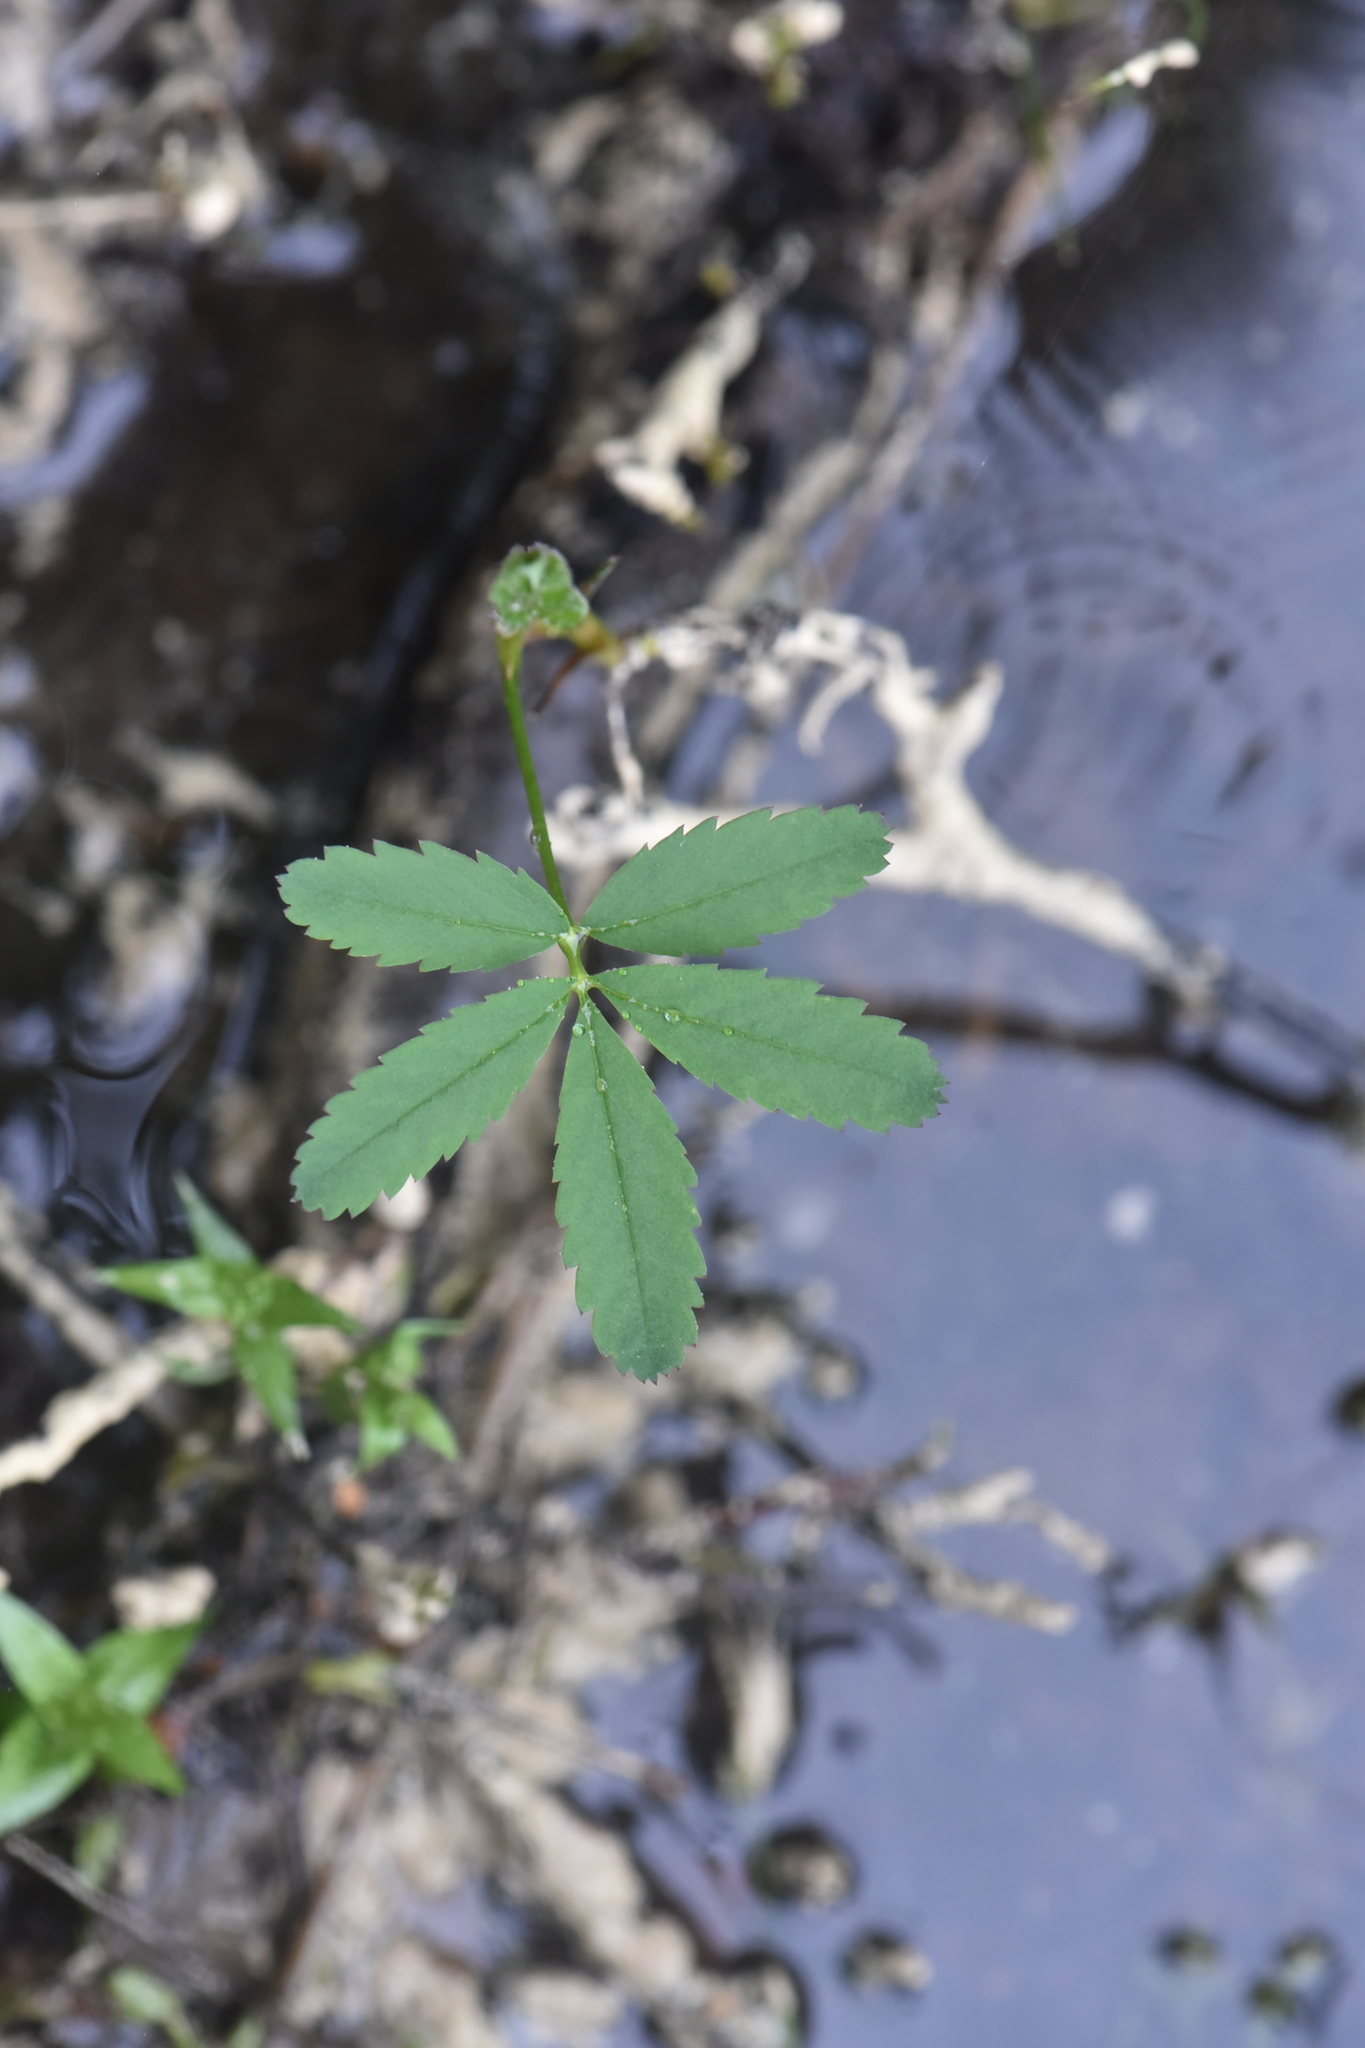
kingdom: Plantae
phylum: Tracheophyta
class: Magnoliopsida
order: Rosales
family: Rosaceae
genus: Comarum
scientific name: Comarum palustre
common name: Marsh cinquefoil
